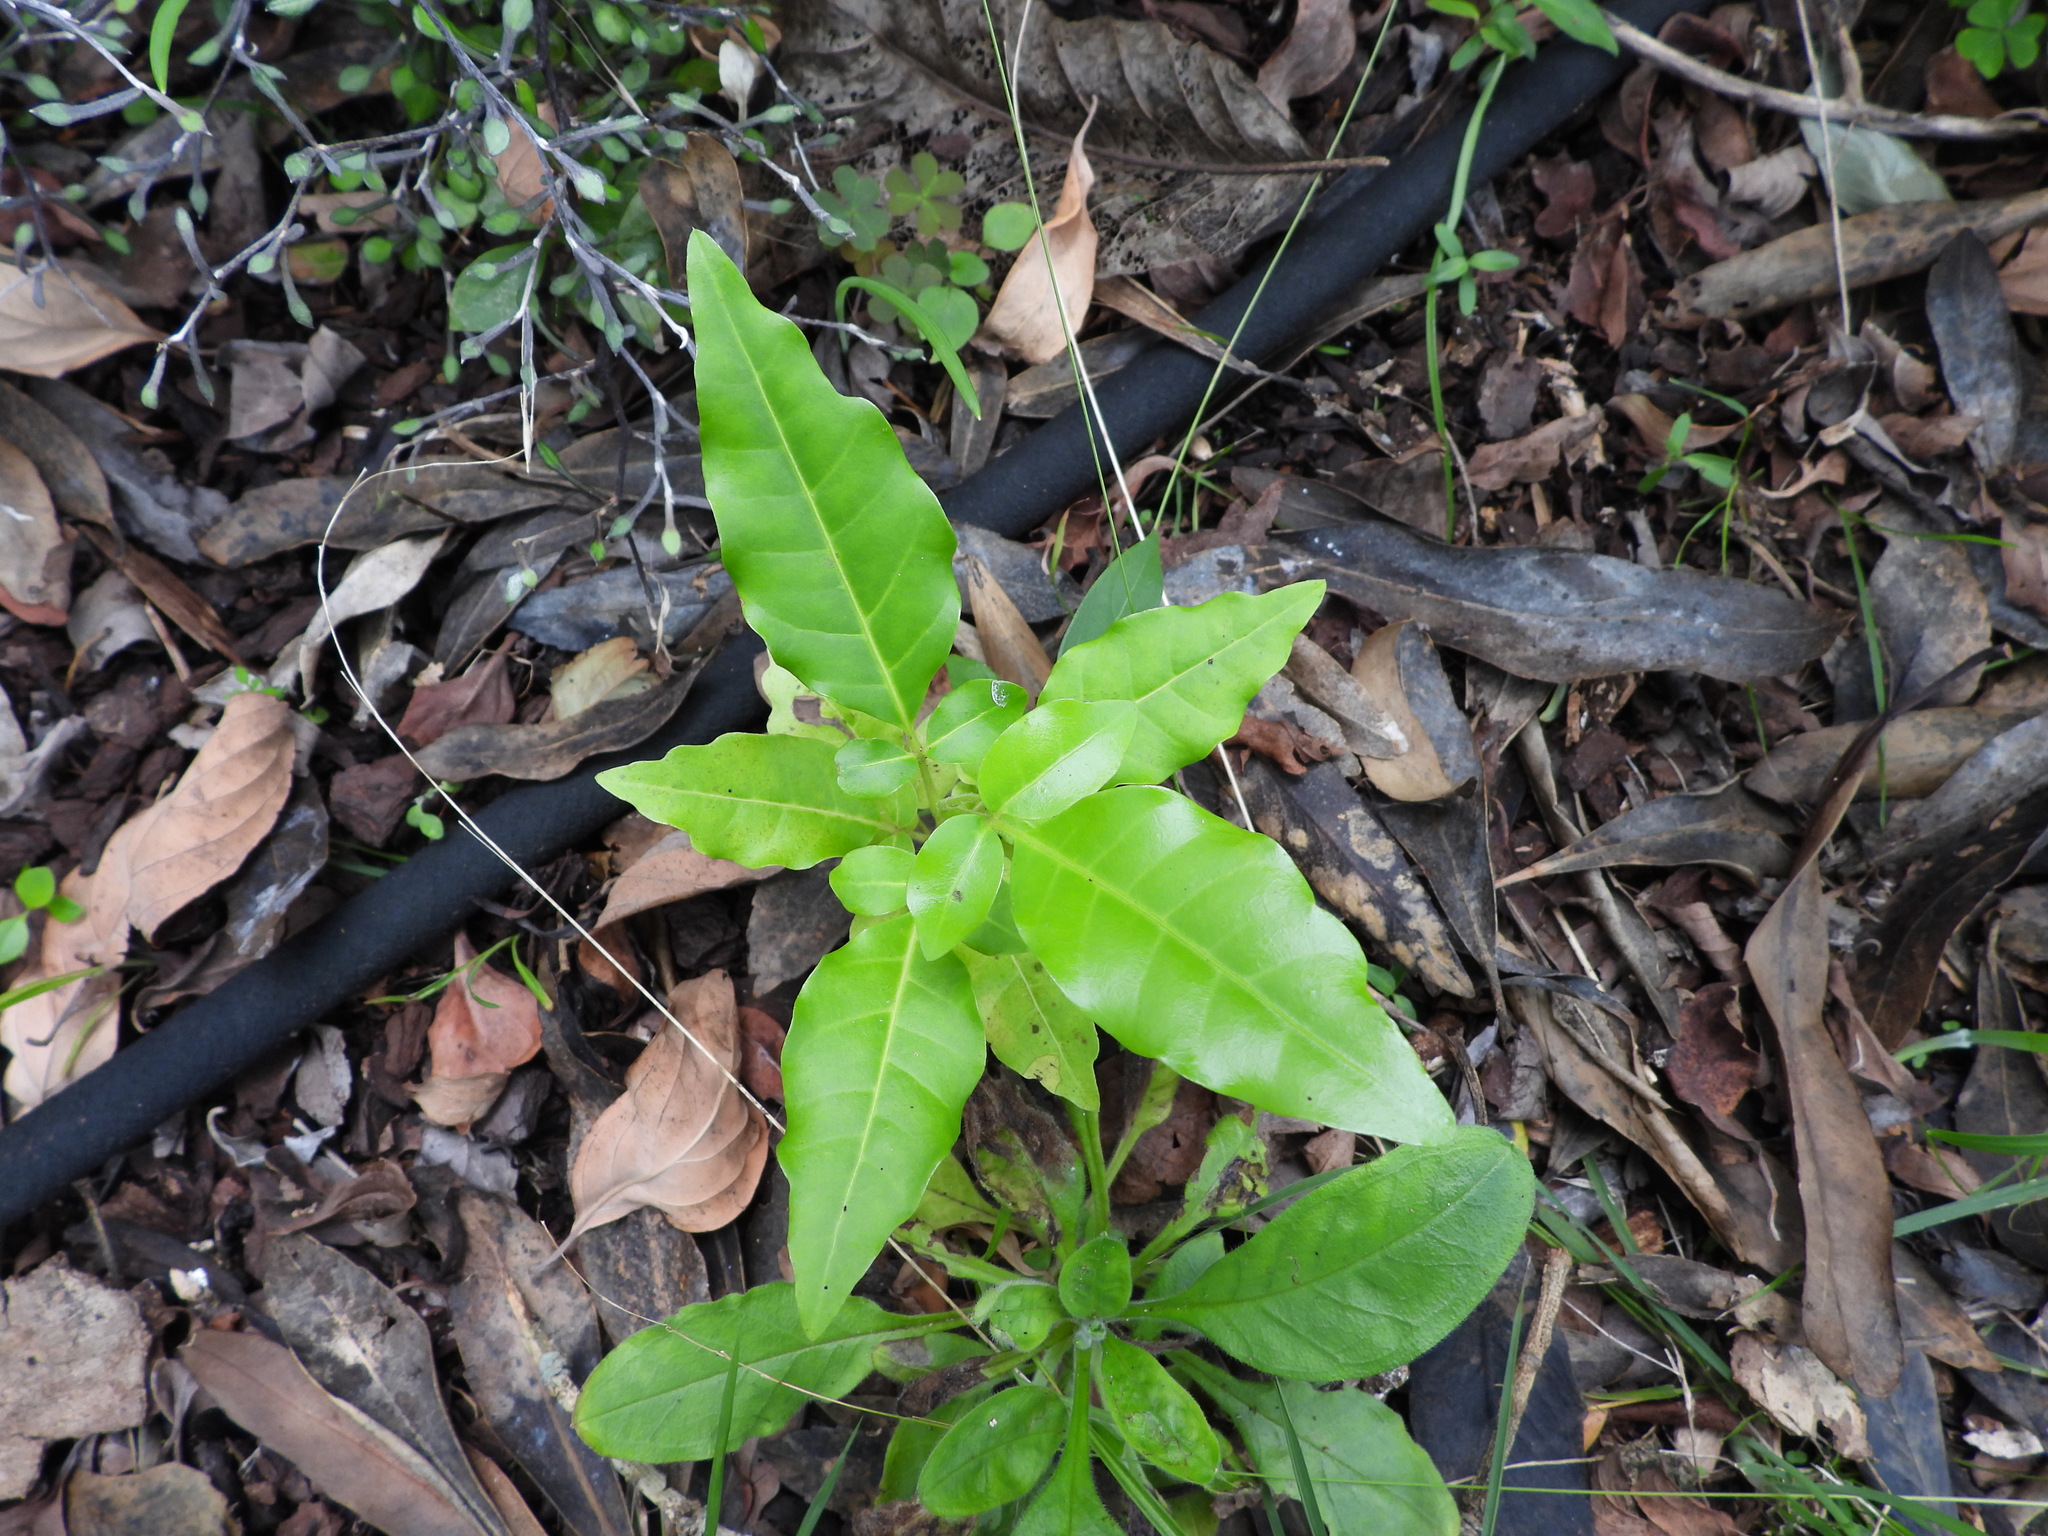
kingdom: Plantae
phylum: Tracheophyta
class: Magnoliopsida
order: Sapindales
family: Meliaceae
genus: Didymocheton
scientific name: Didymocheton spectabilis
